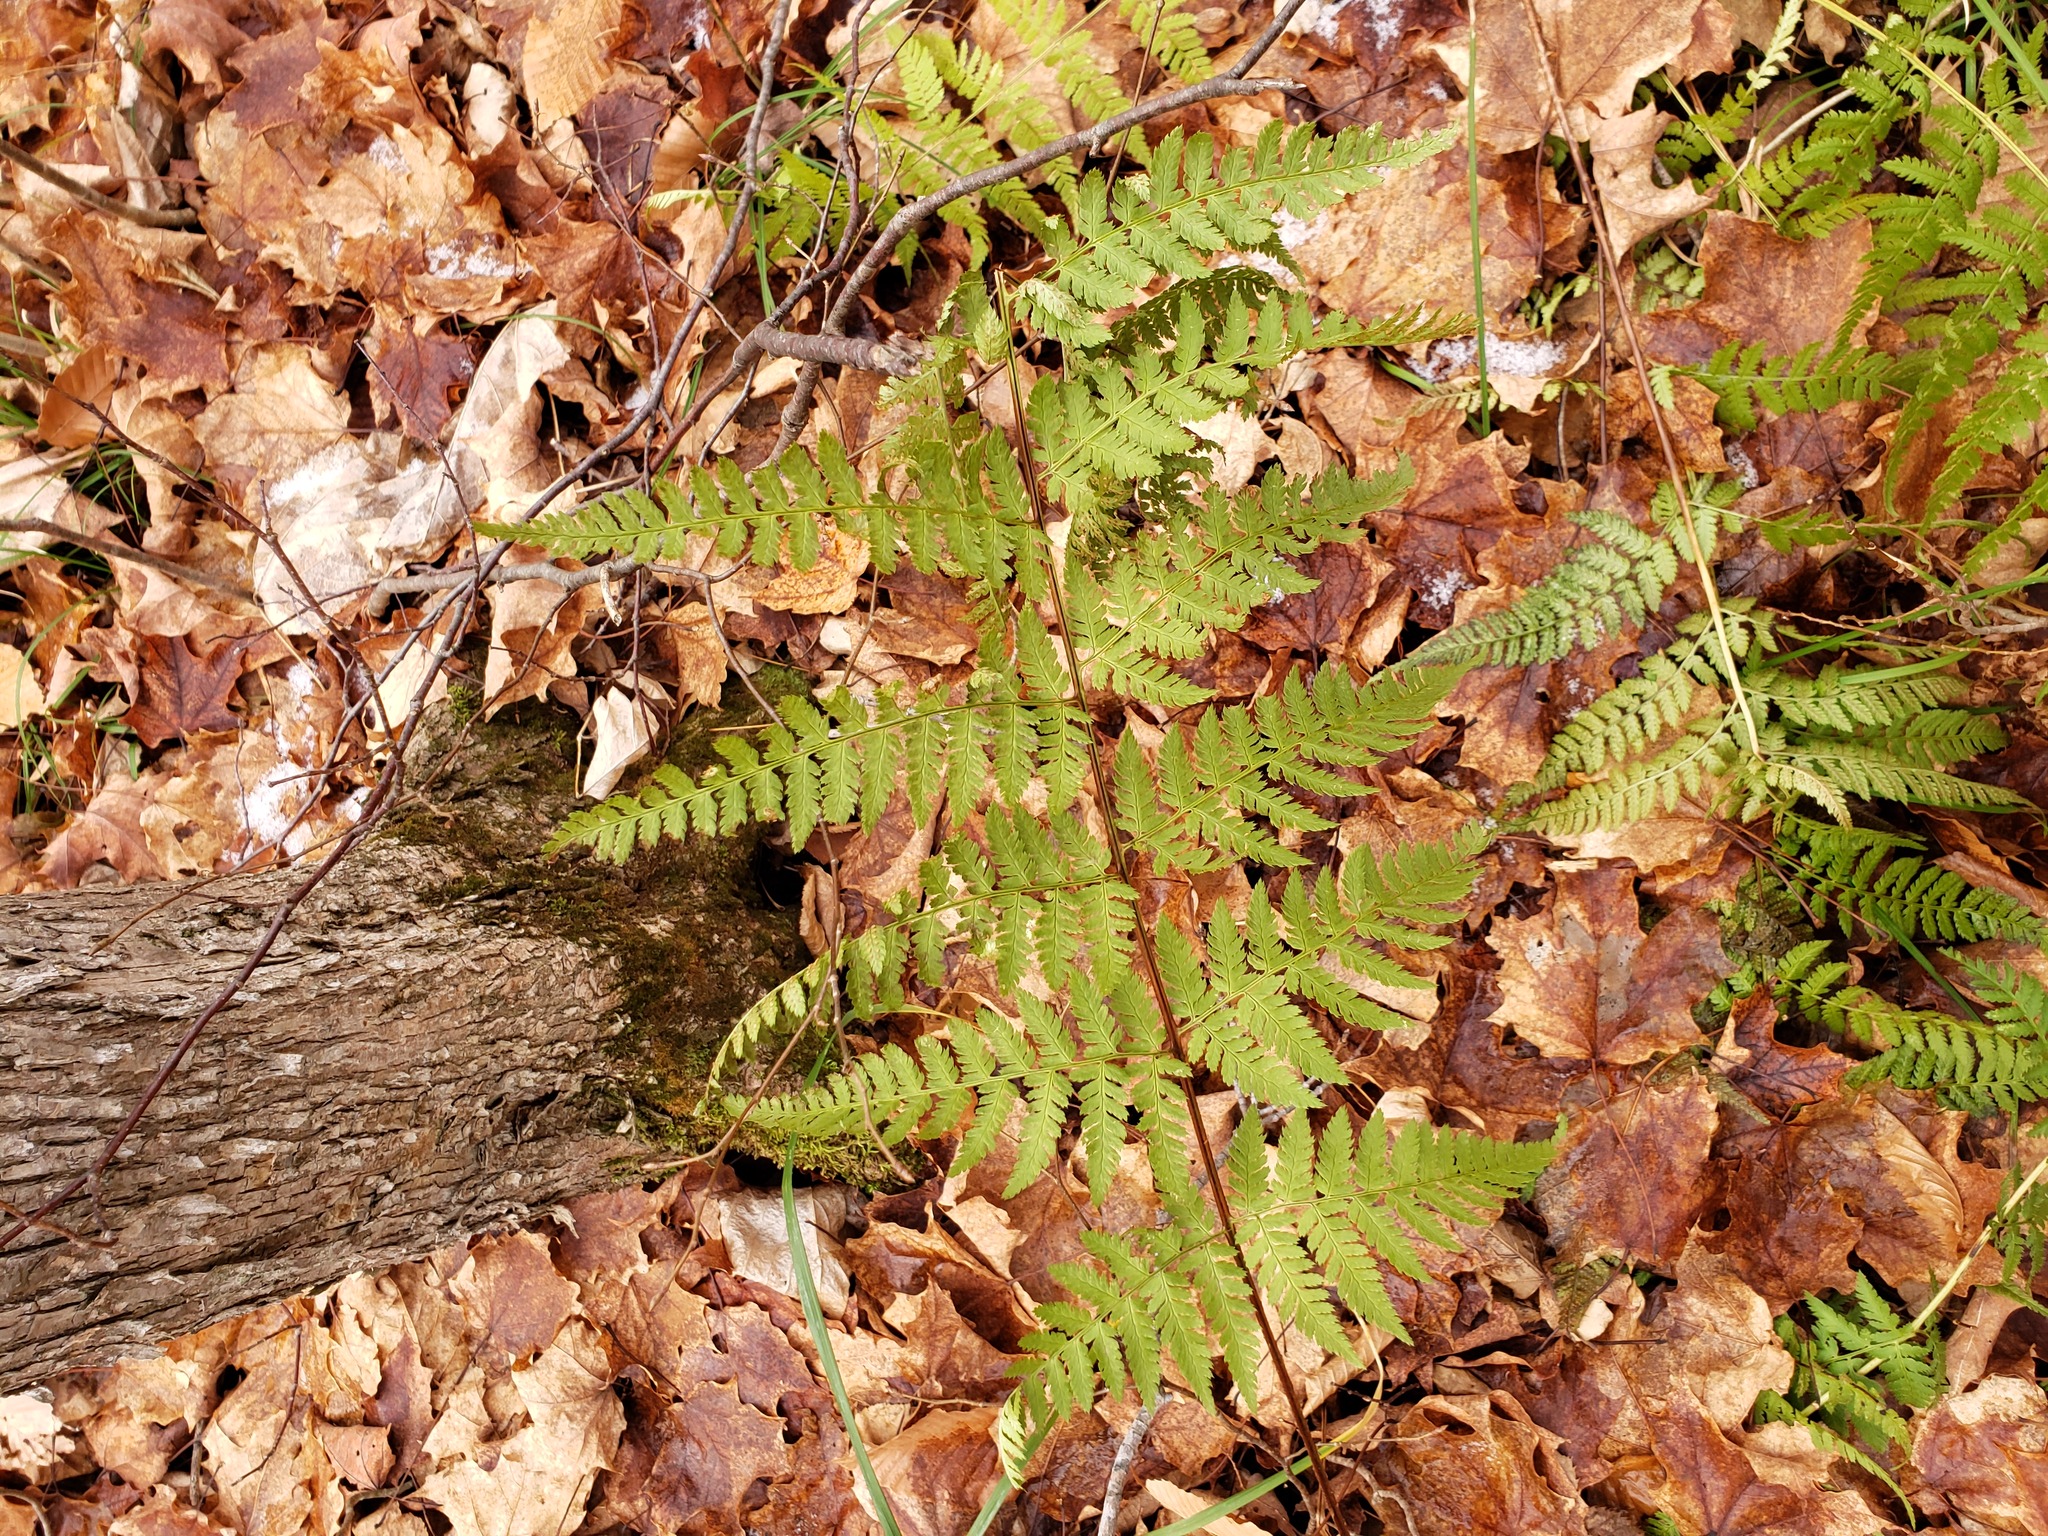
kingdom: Plantae
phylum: Tracheophyta
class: Polypodiopsida
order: Polypodiales
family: Dryopteridaceae
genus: Dryopteris
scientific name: Dryopteris carthusiana
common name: Narrow buckler-fern
